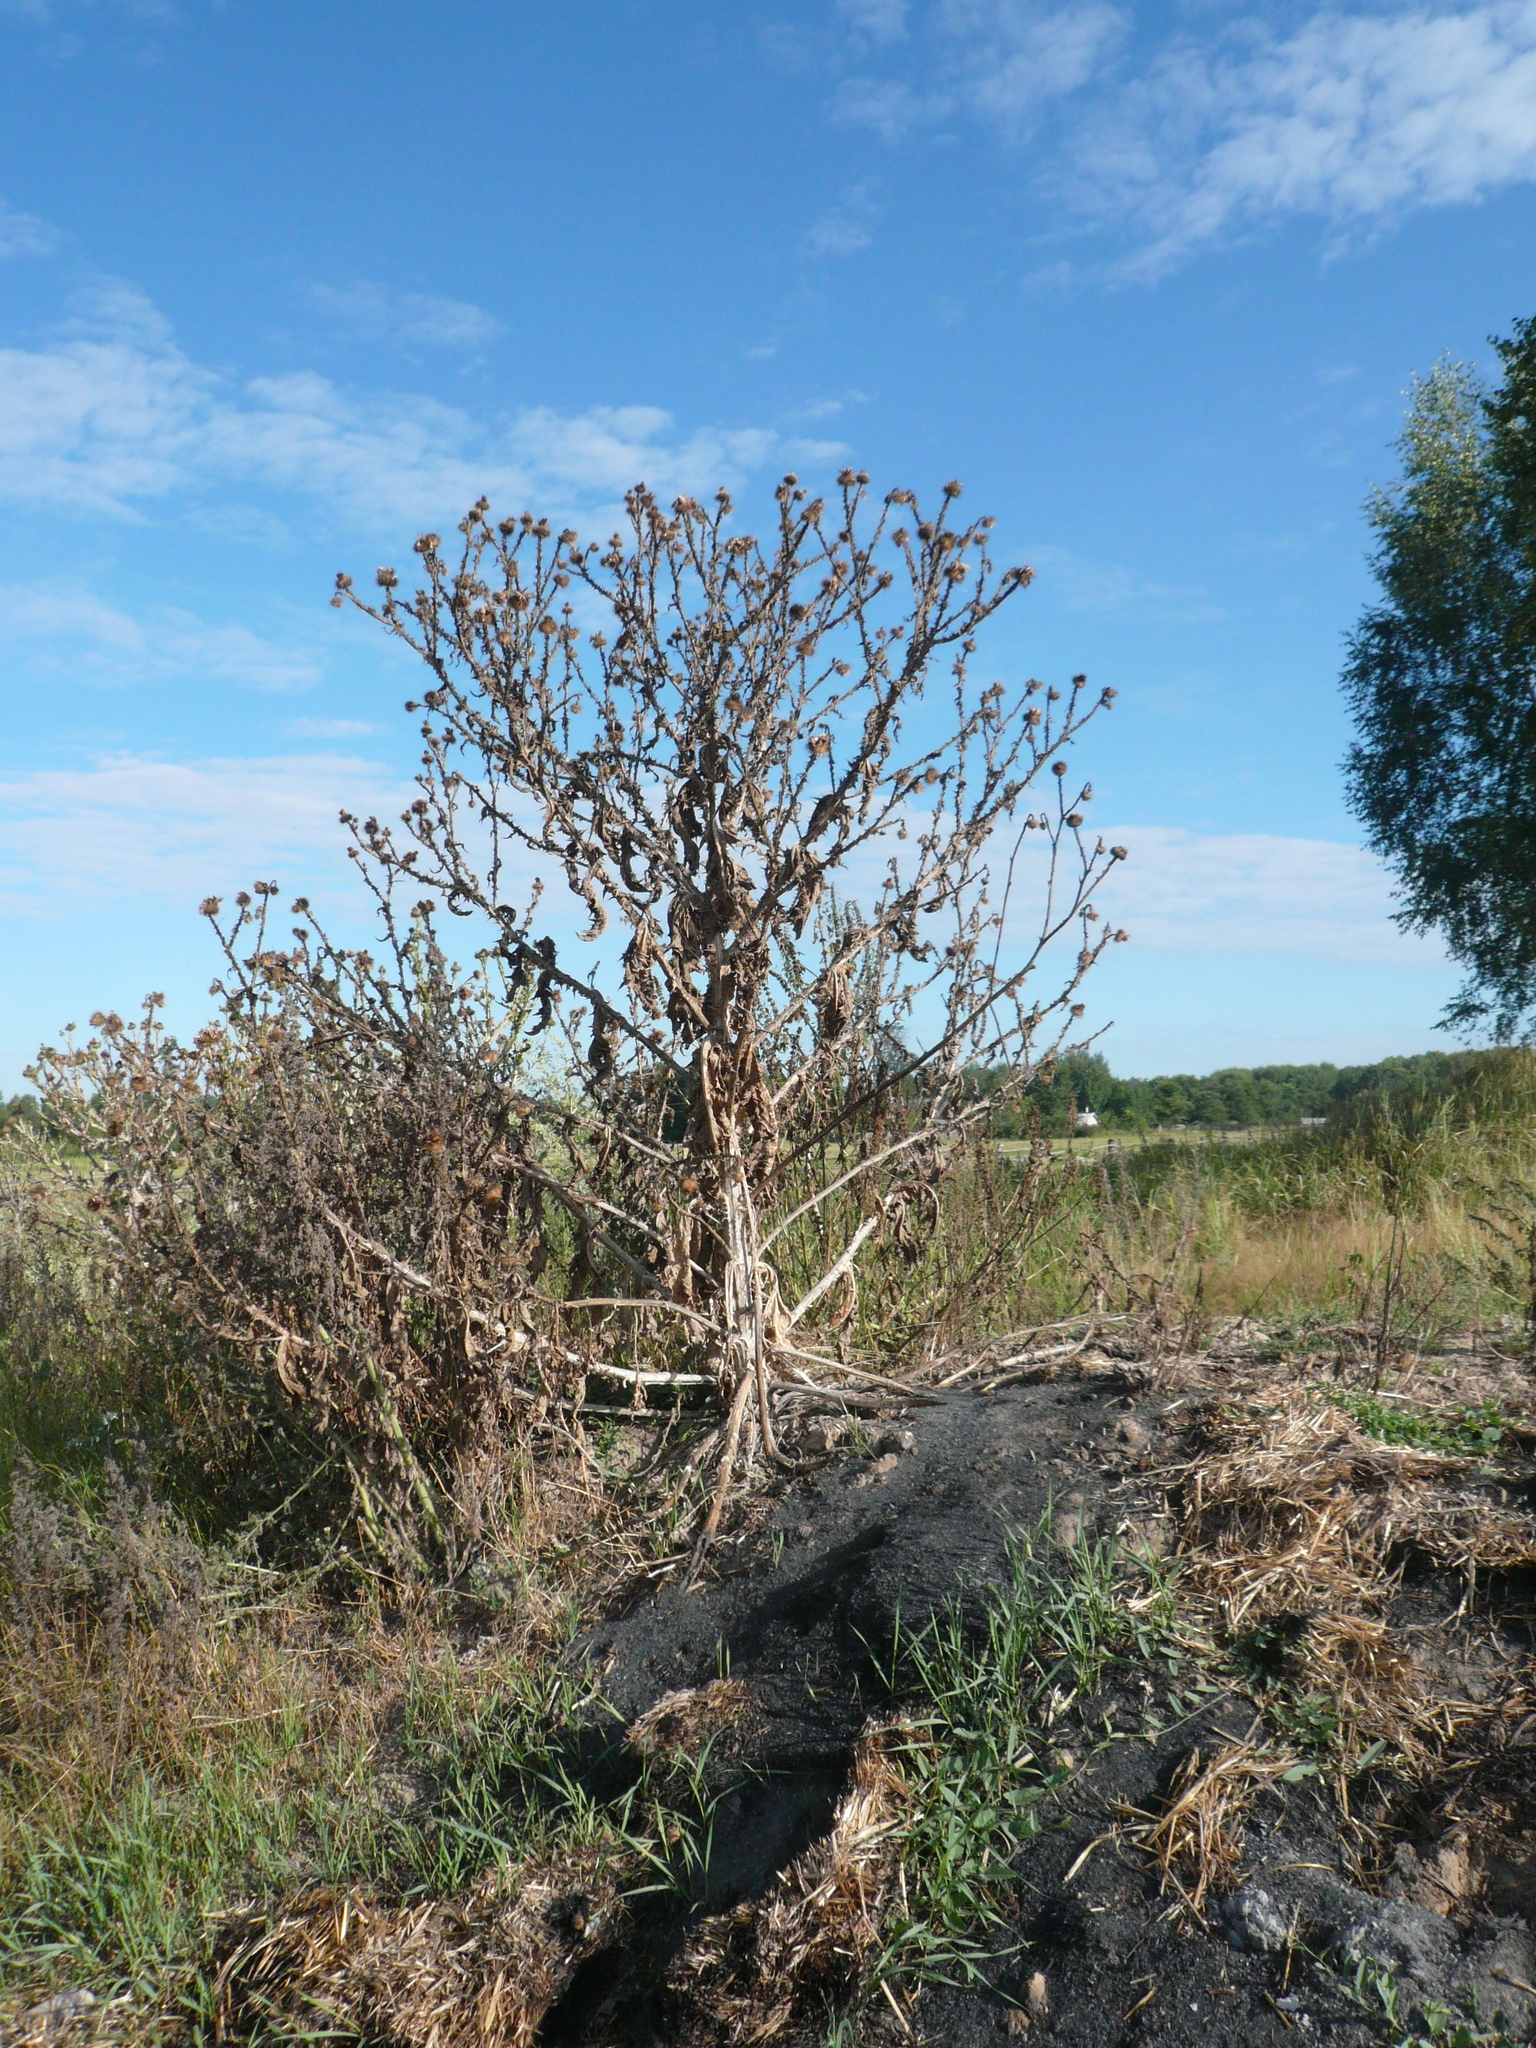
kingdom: Plantae
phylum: Tracheophyta
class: Magnoliopsida
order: Asterales
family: Asteraceae
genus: Onopordum
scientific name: Onopordum acanthium
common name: Scotch thistle
